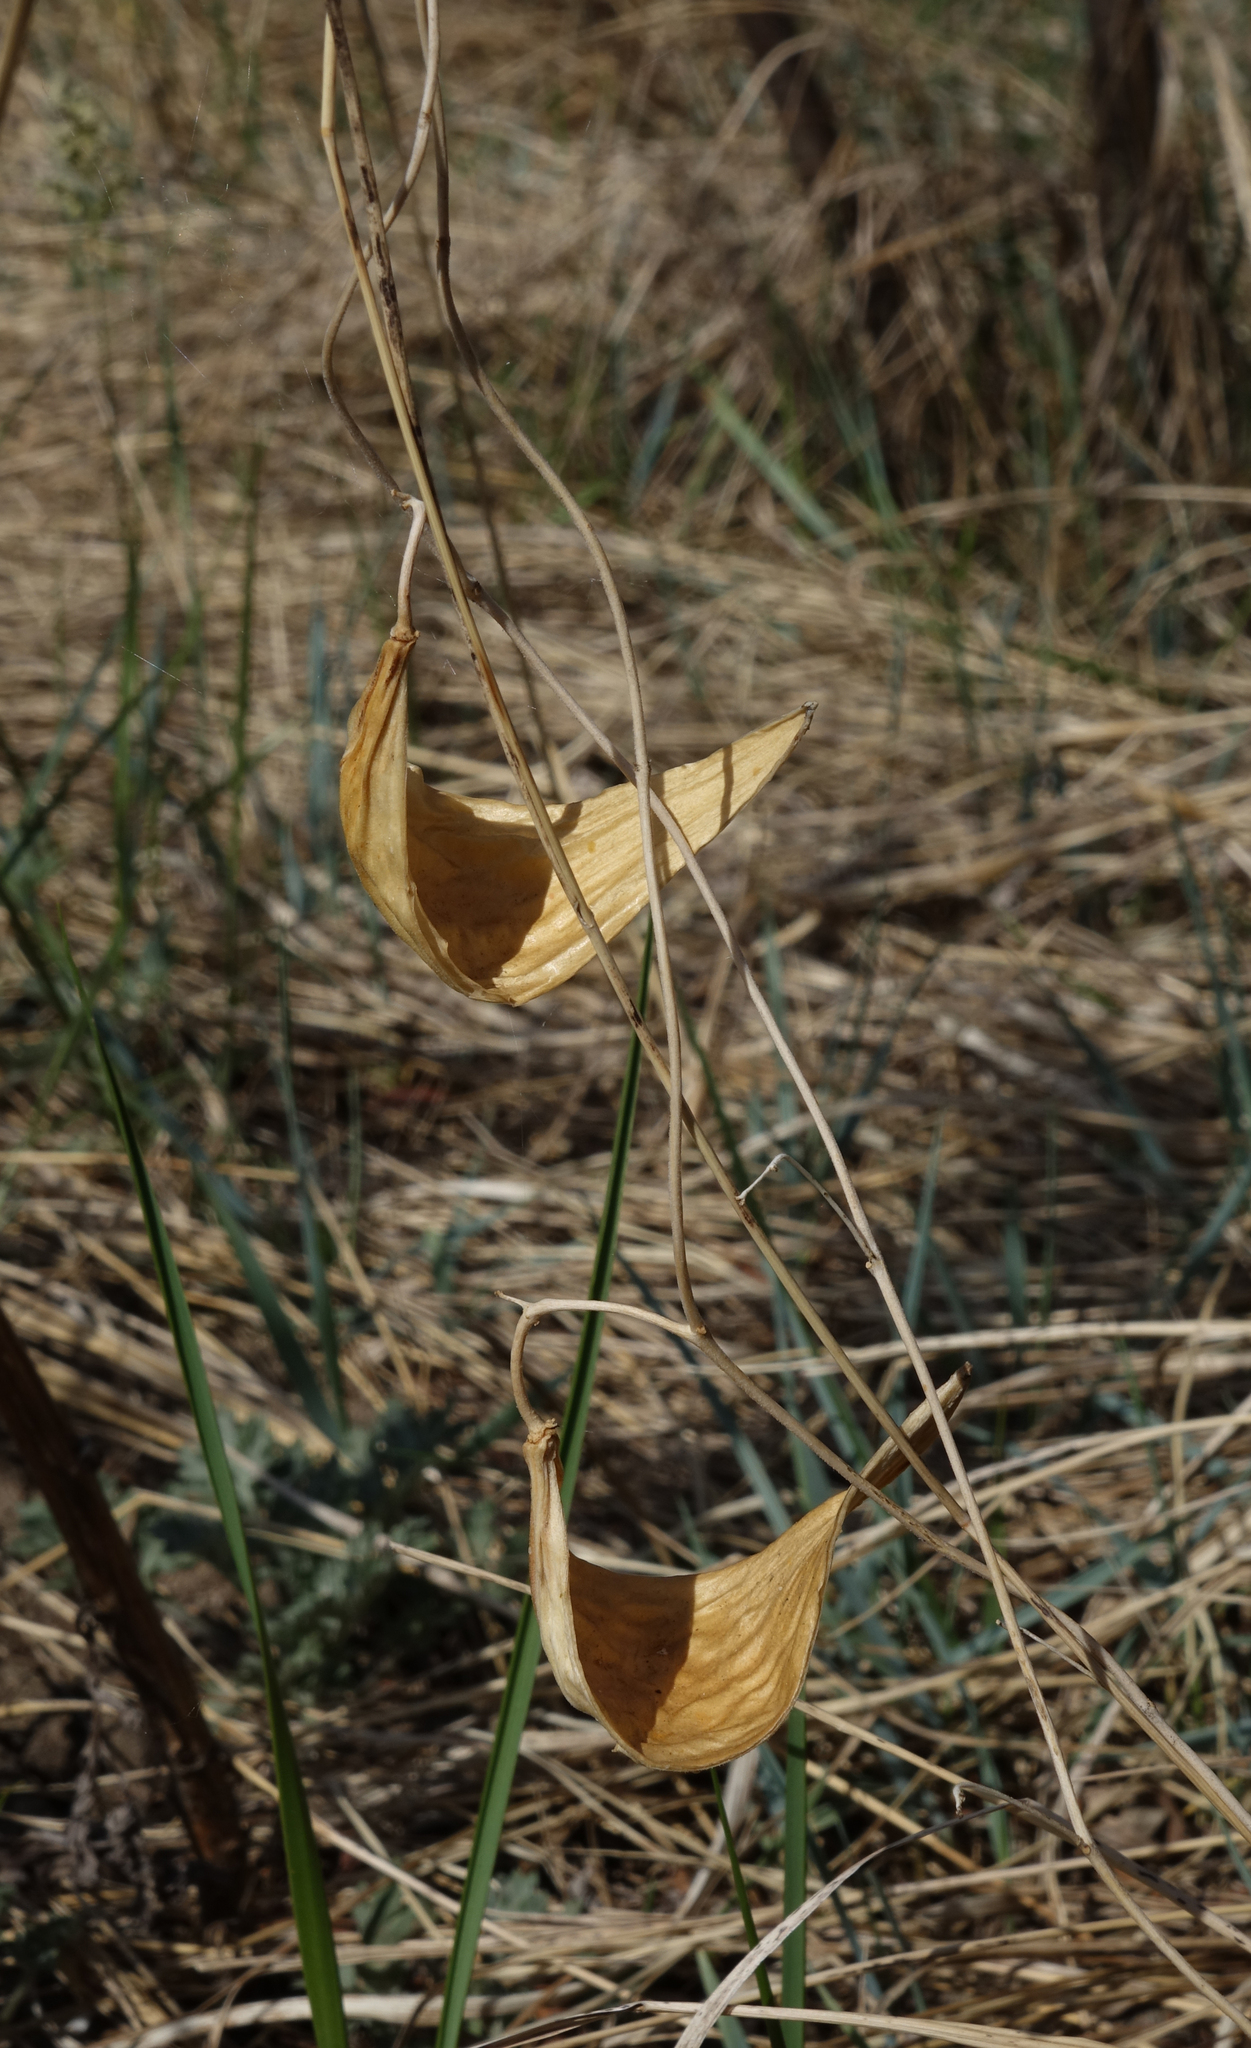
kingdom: Plantae
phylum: Tracheophyta
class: Magnoliopsida
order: Gentianales
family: Apocynaceae
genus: Cynanchum
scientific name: Cynanchum thesioides
